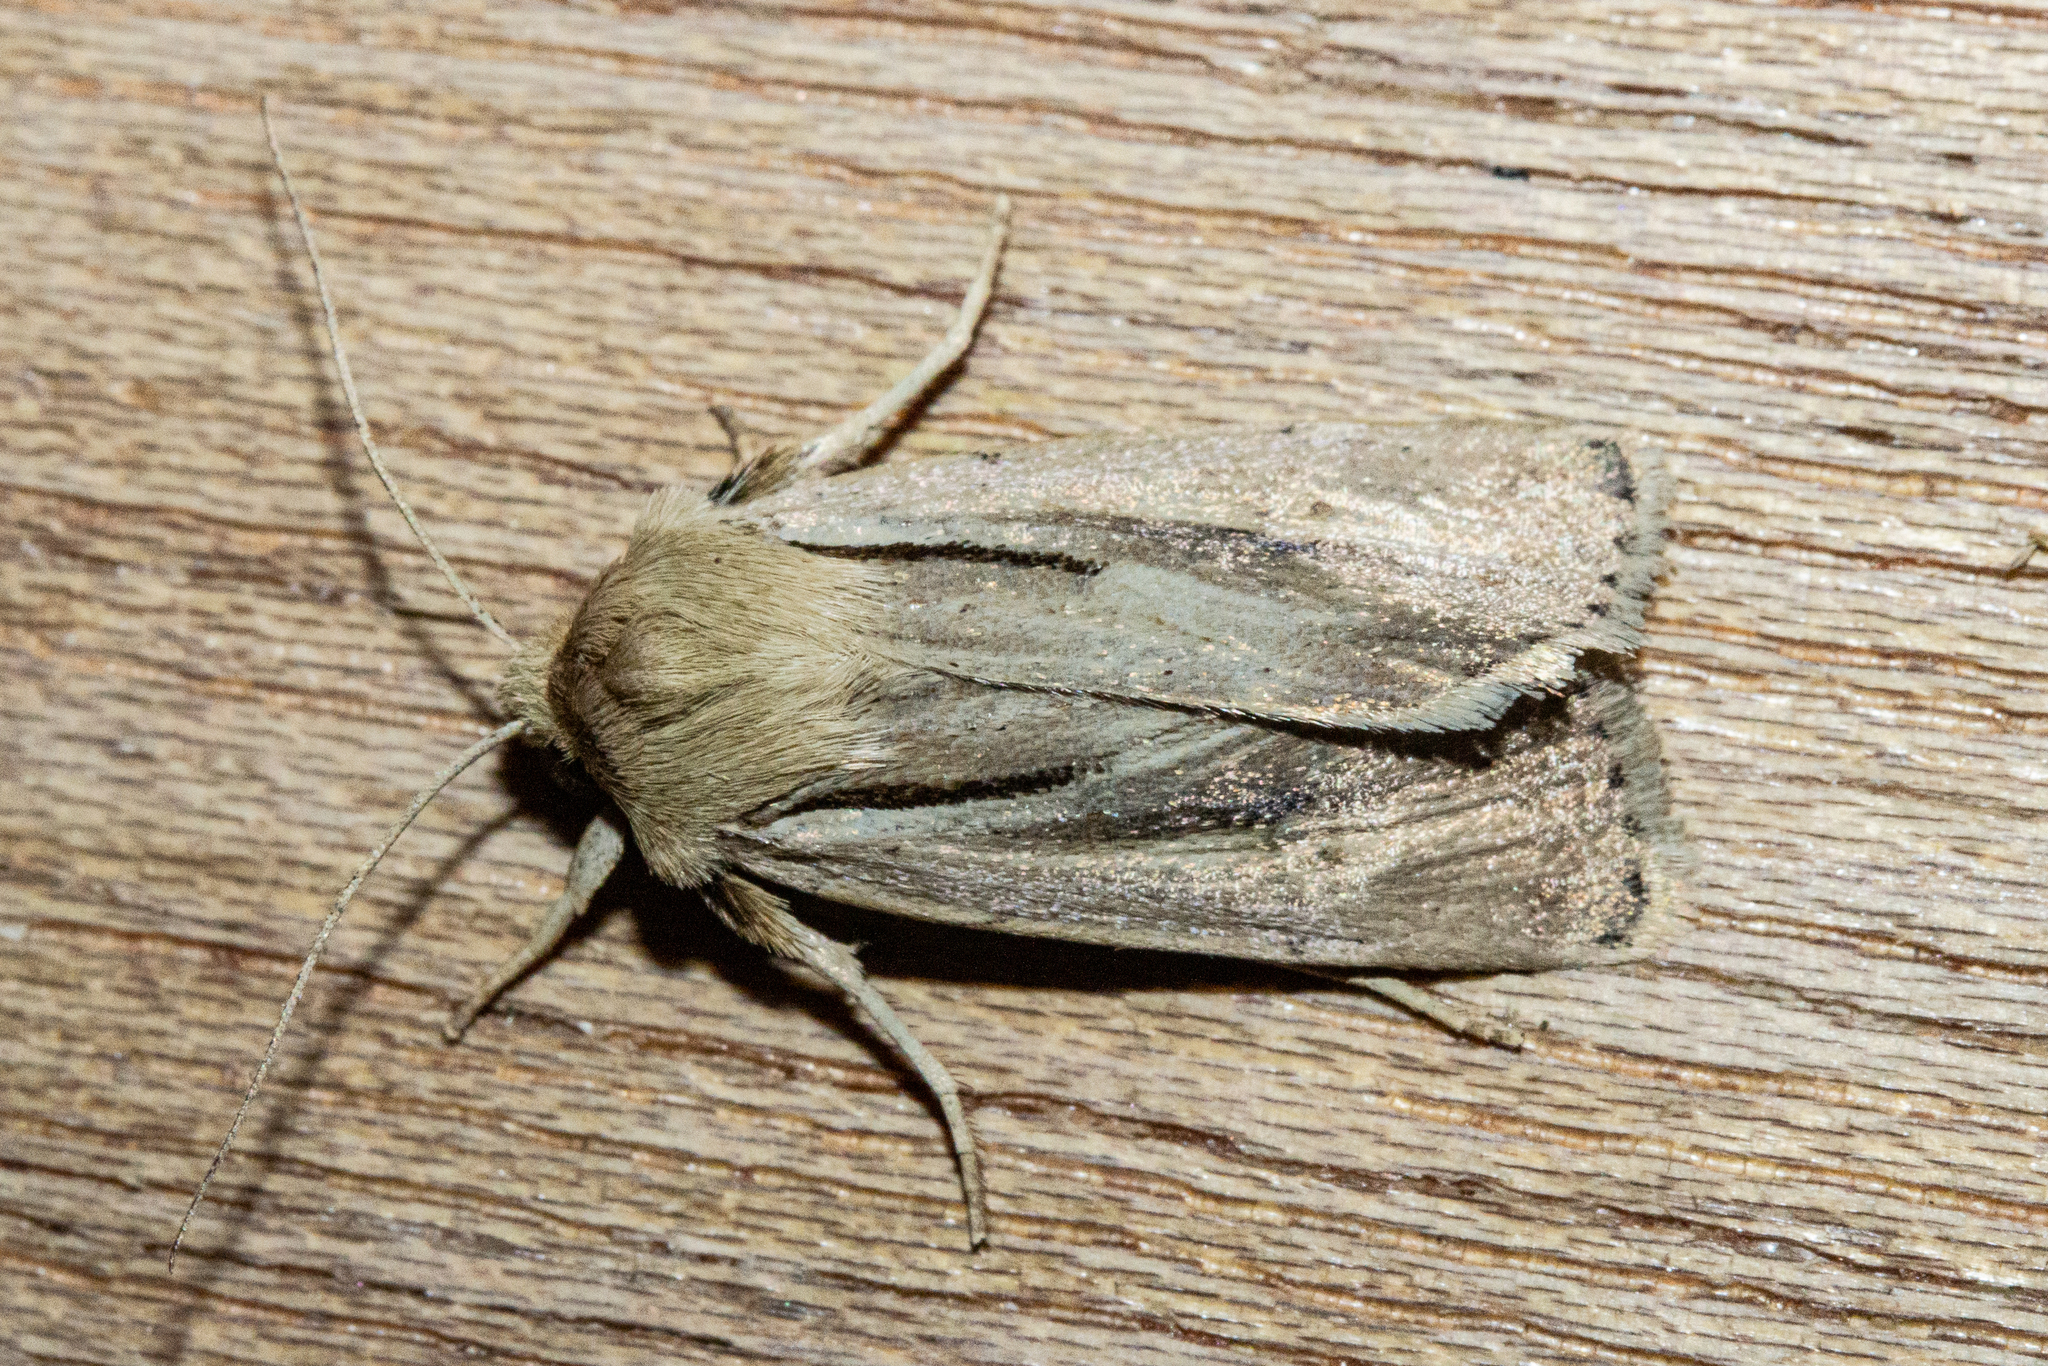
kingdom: Animalia
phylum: Arthropoda
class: Insecta
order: Lepidoptera
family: Noctuidae
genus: Ichneutica
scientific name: Ichneutica propria
